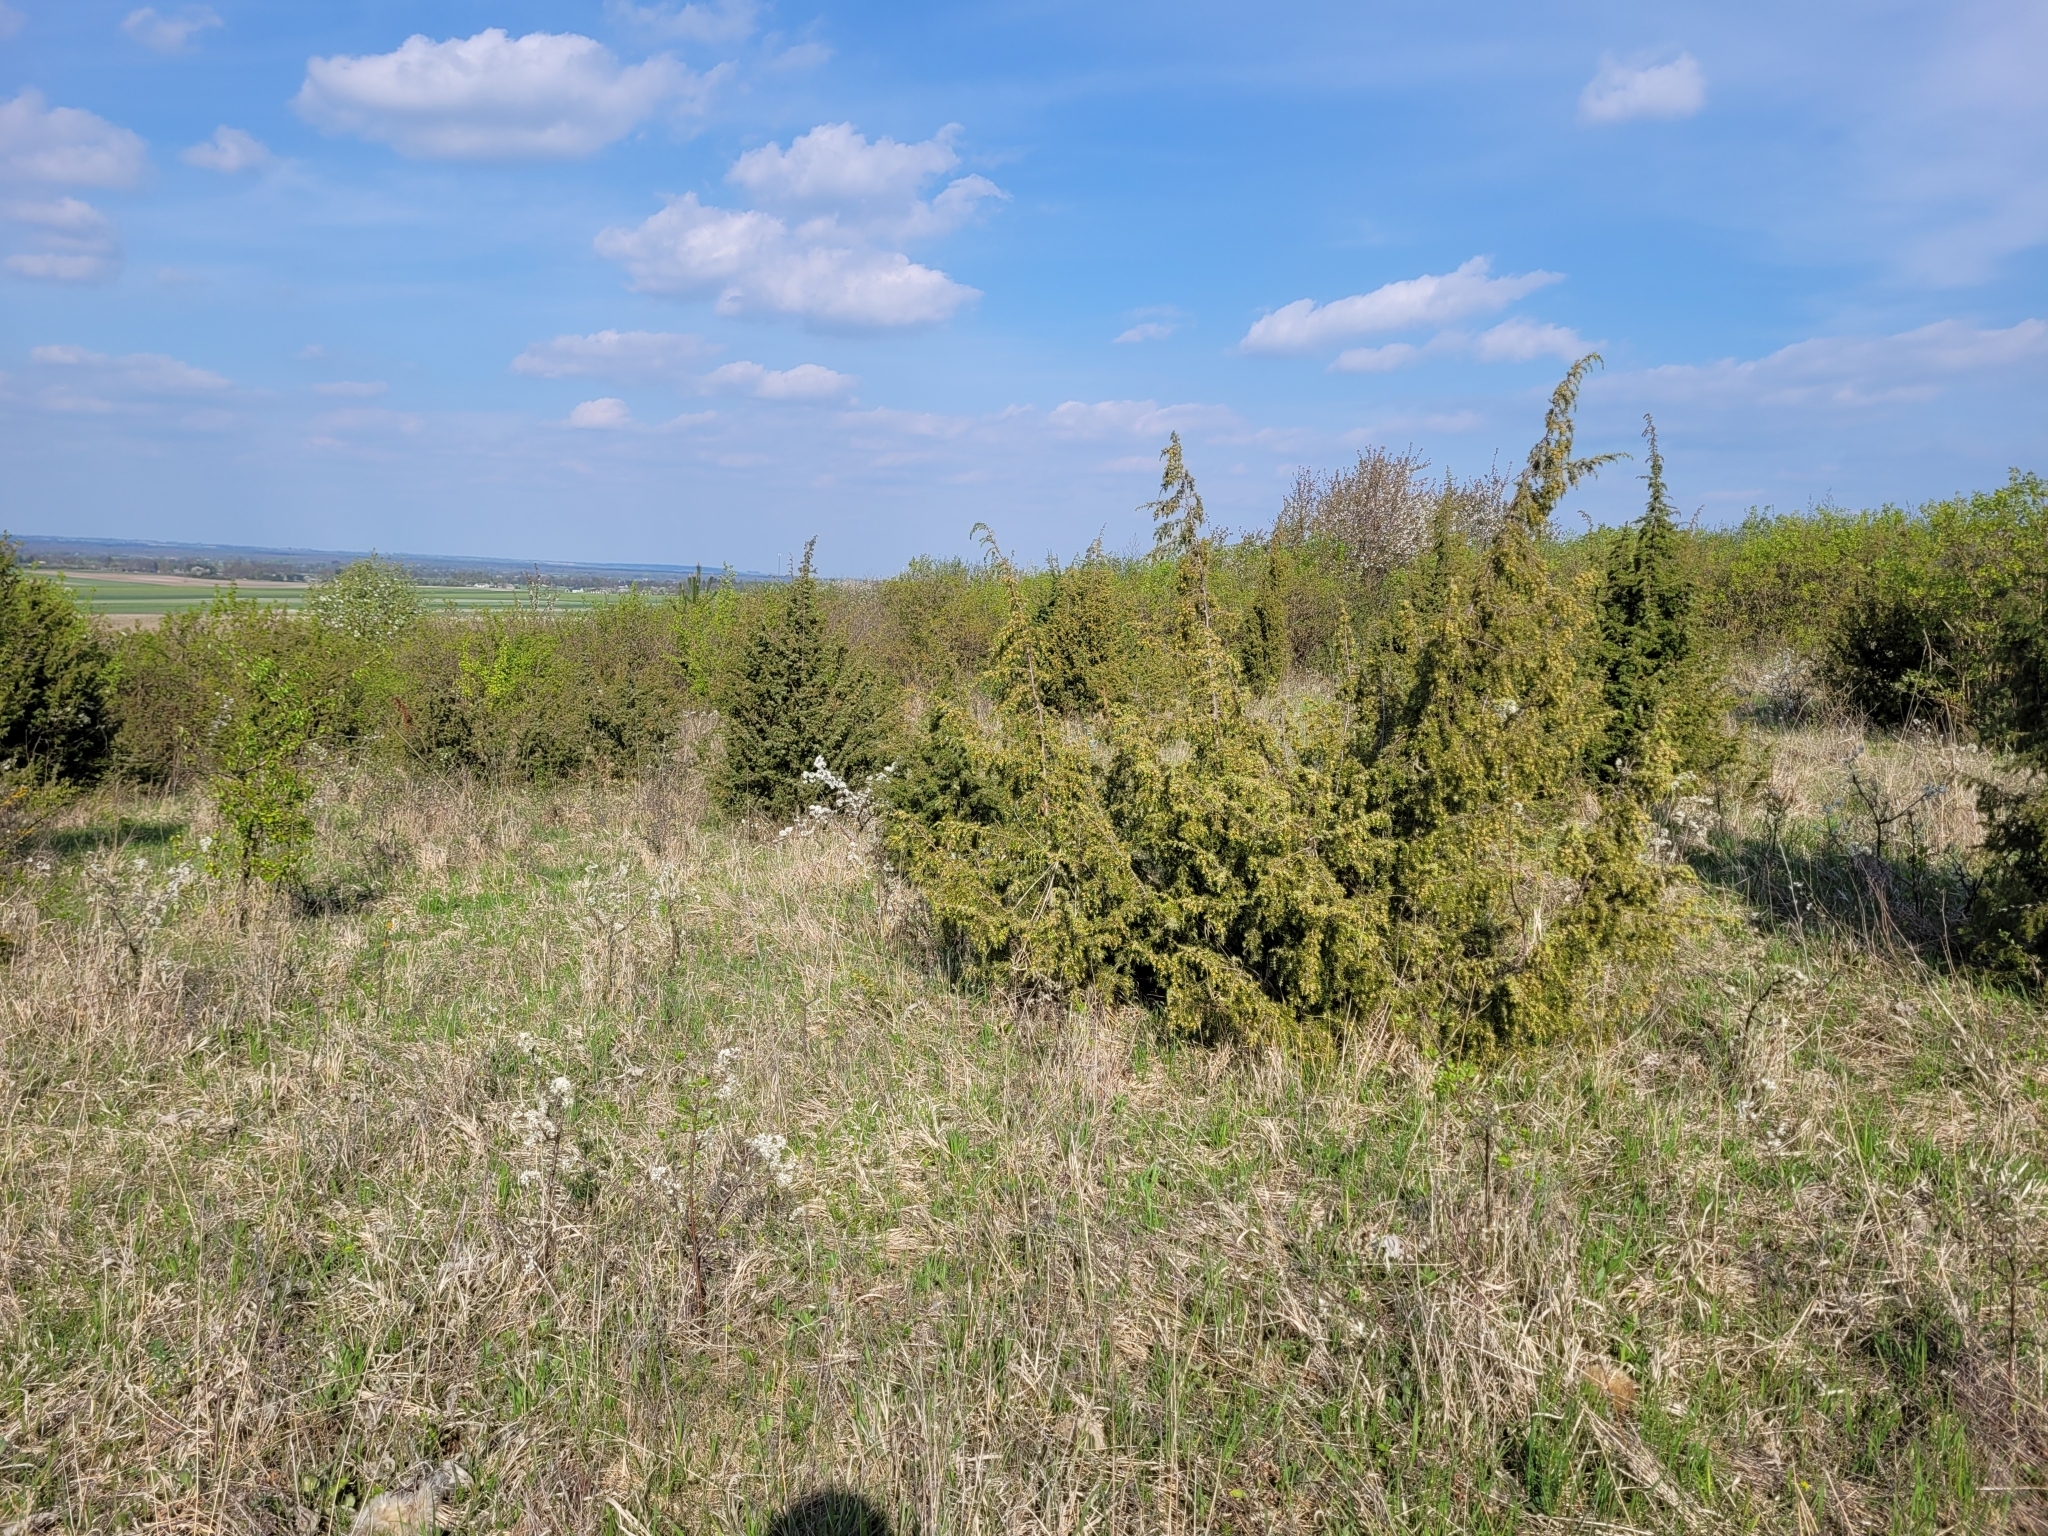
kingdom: Plantae
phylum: Tracheophyta
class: Pinopsida
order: Pinales
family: Cupressaceae
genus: Juniperus
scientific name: Juniperus communis
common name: Common juniper
